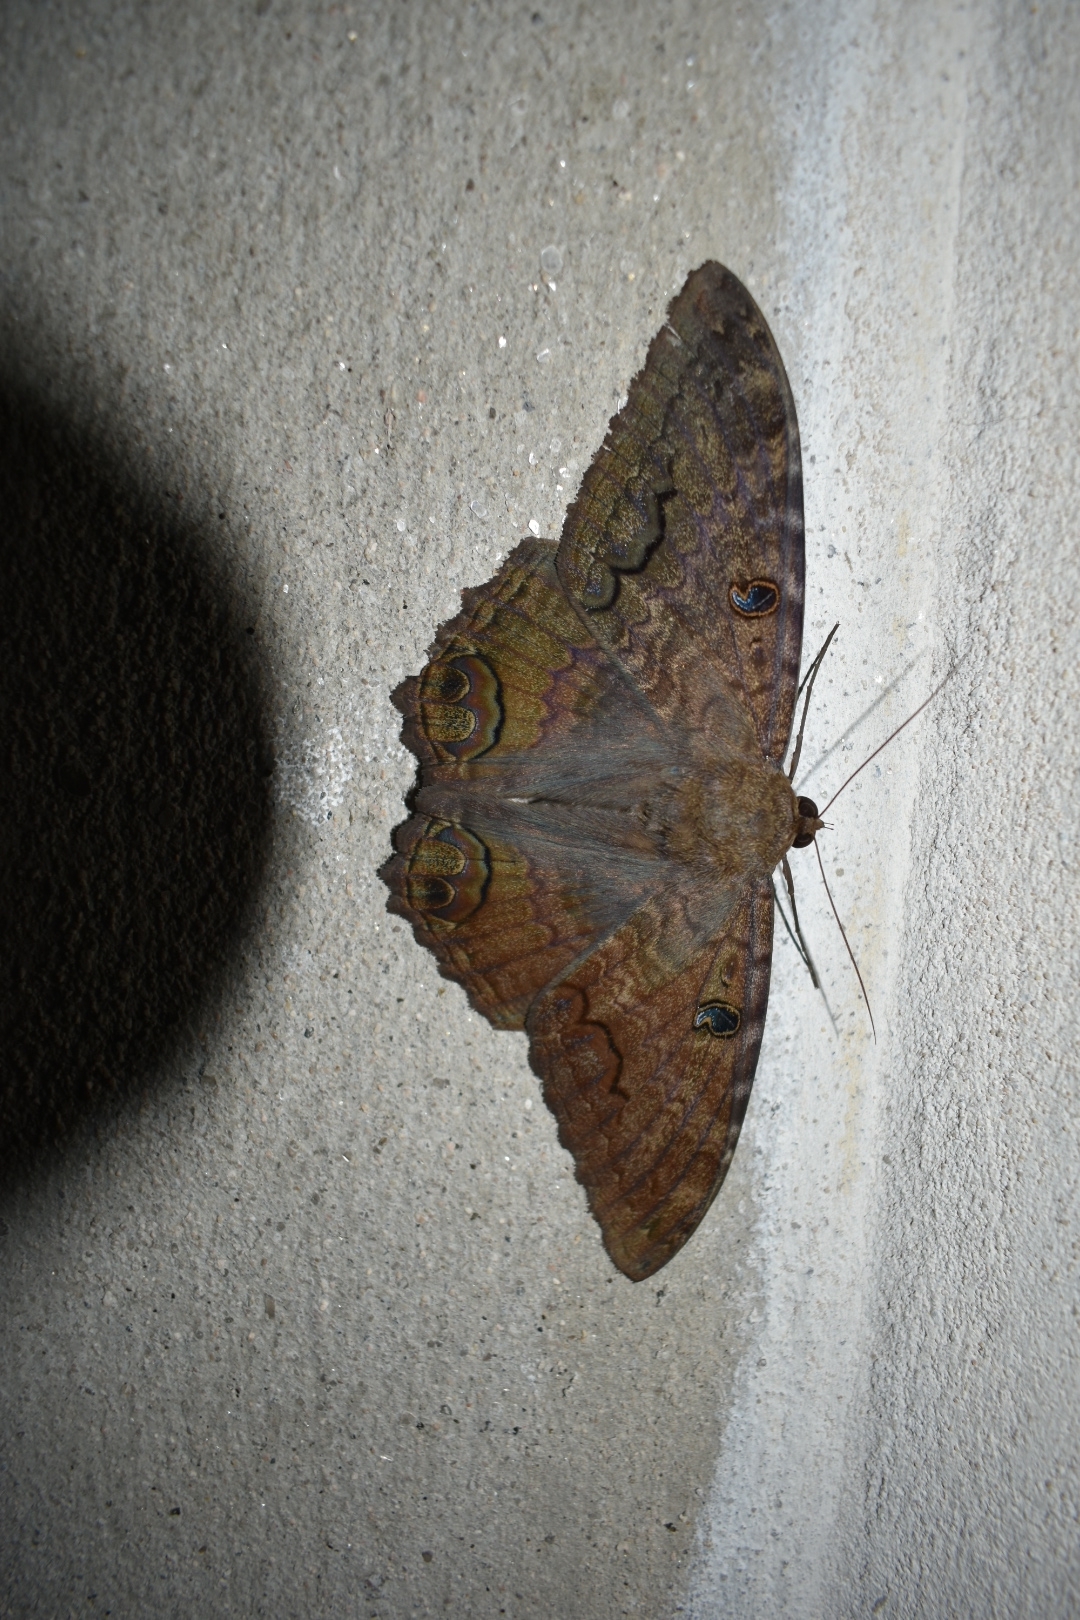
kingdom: Animalia
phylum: Arthropoda
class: Insecta
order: Lepidoptera
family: Erebidae
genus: Ascalapha
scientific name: Ascalapha odorata
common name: Black witch
